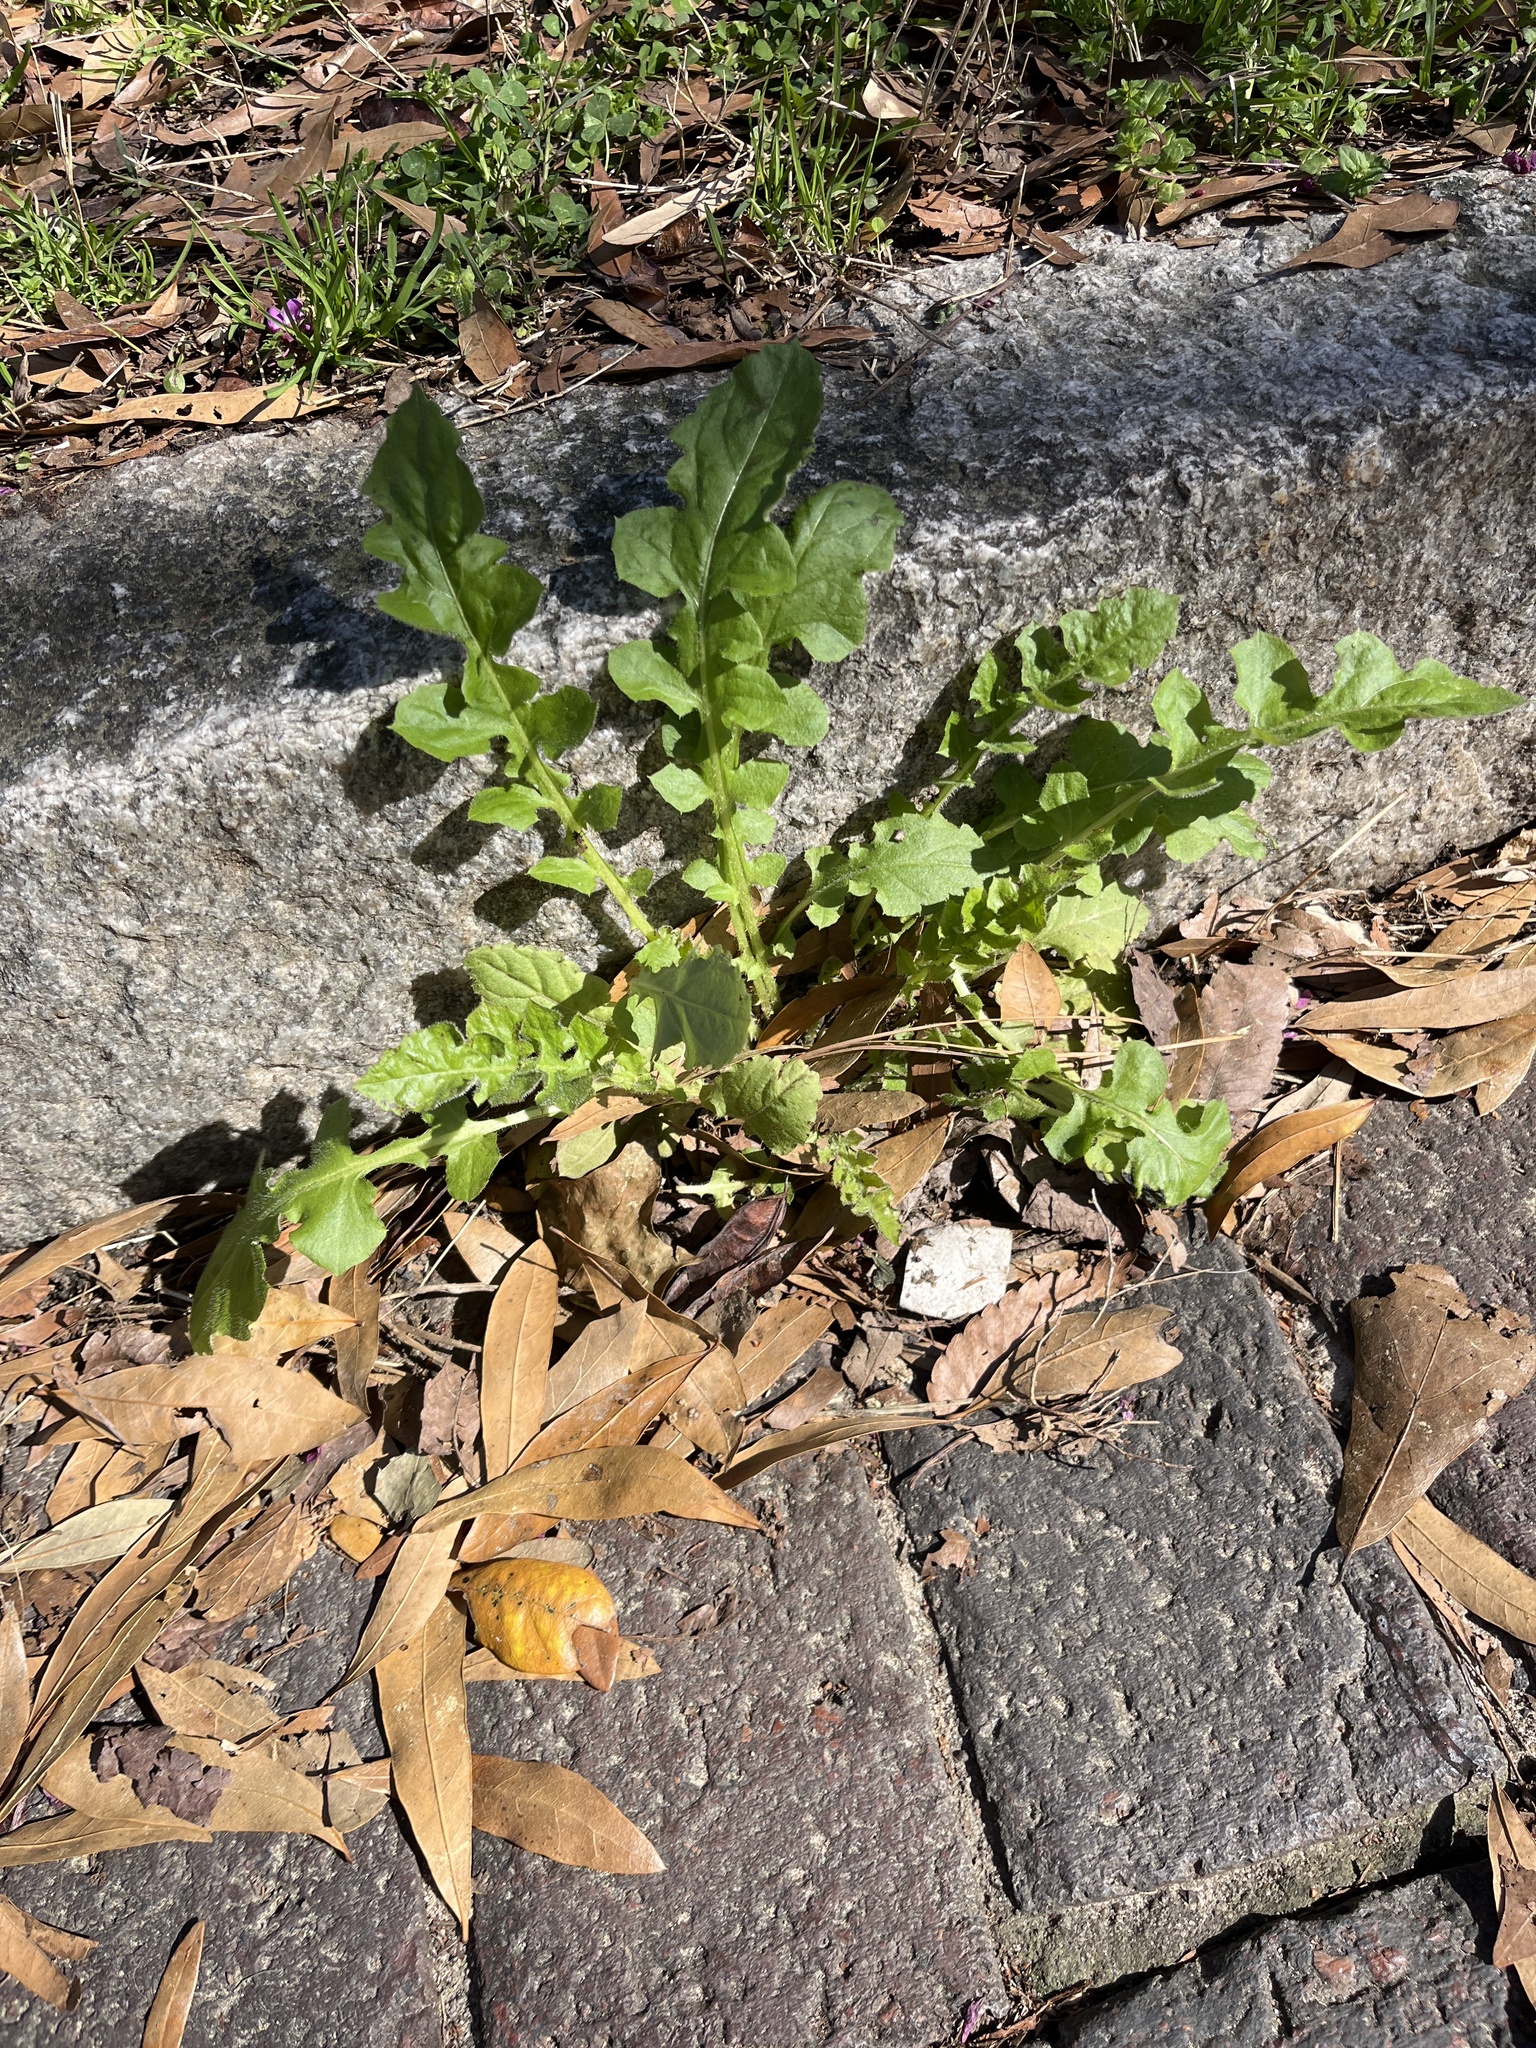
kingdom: Plantae
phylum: Tracheophyta
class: Magnoliopsida
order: Asterales
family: Asteraceae
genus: Youngia
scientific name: Youngia japonica
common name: Oriental false hawksbeard
